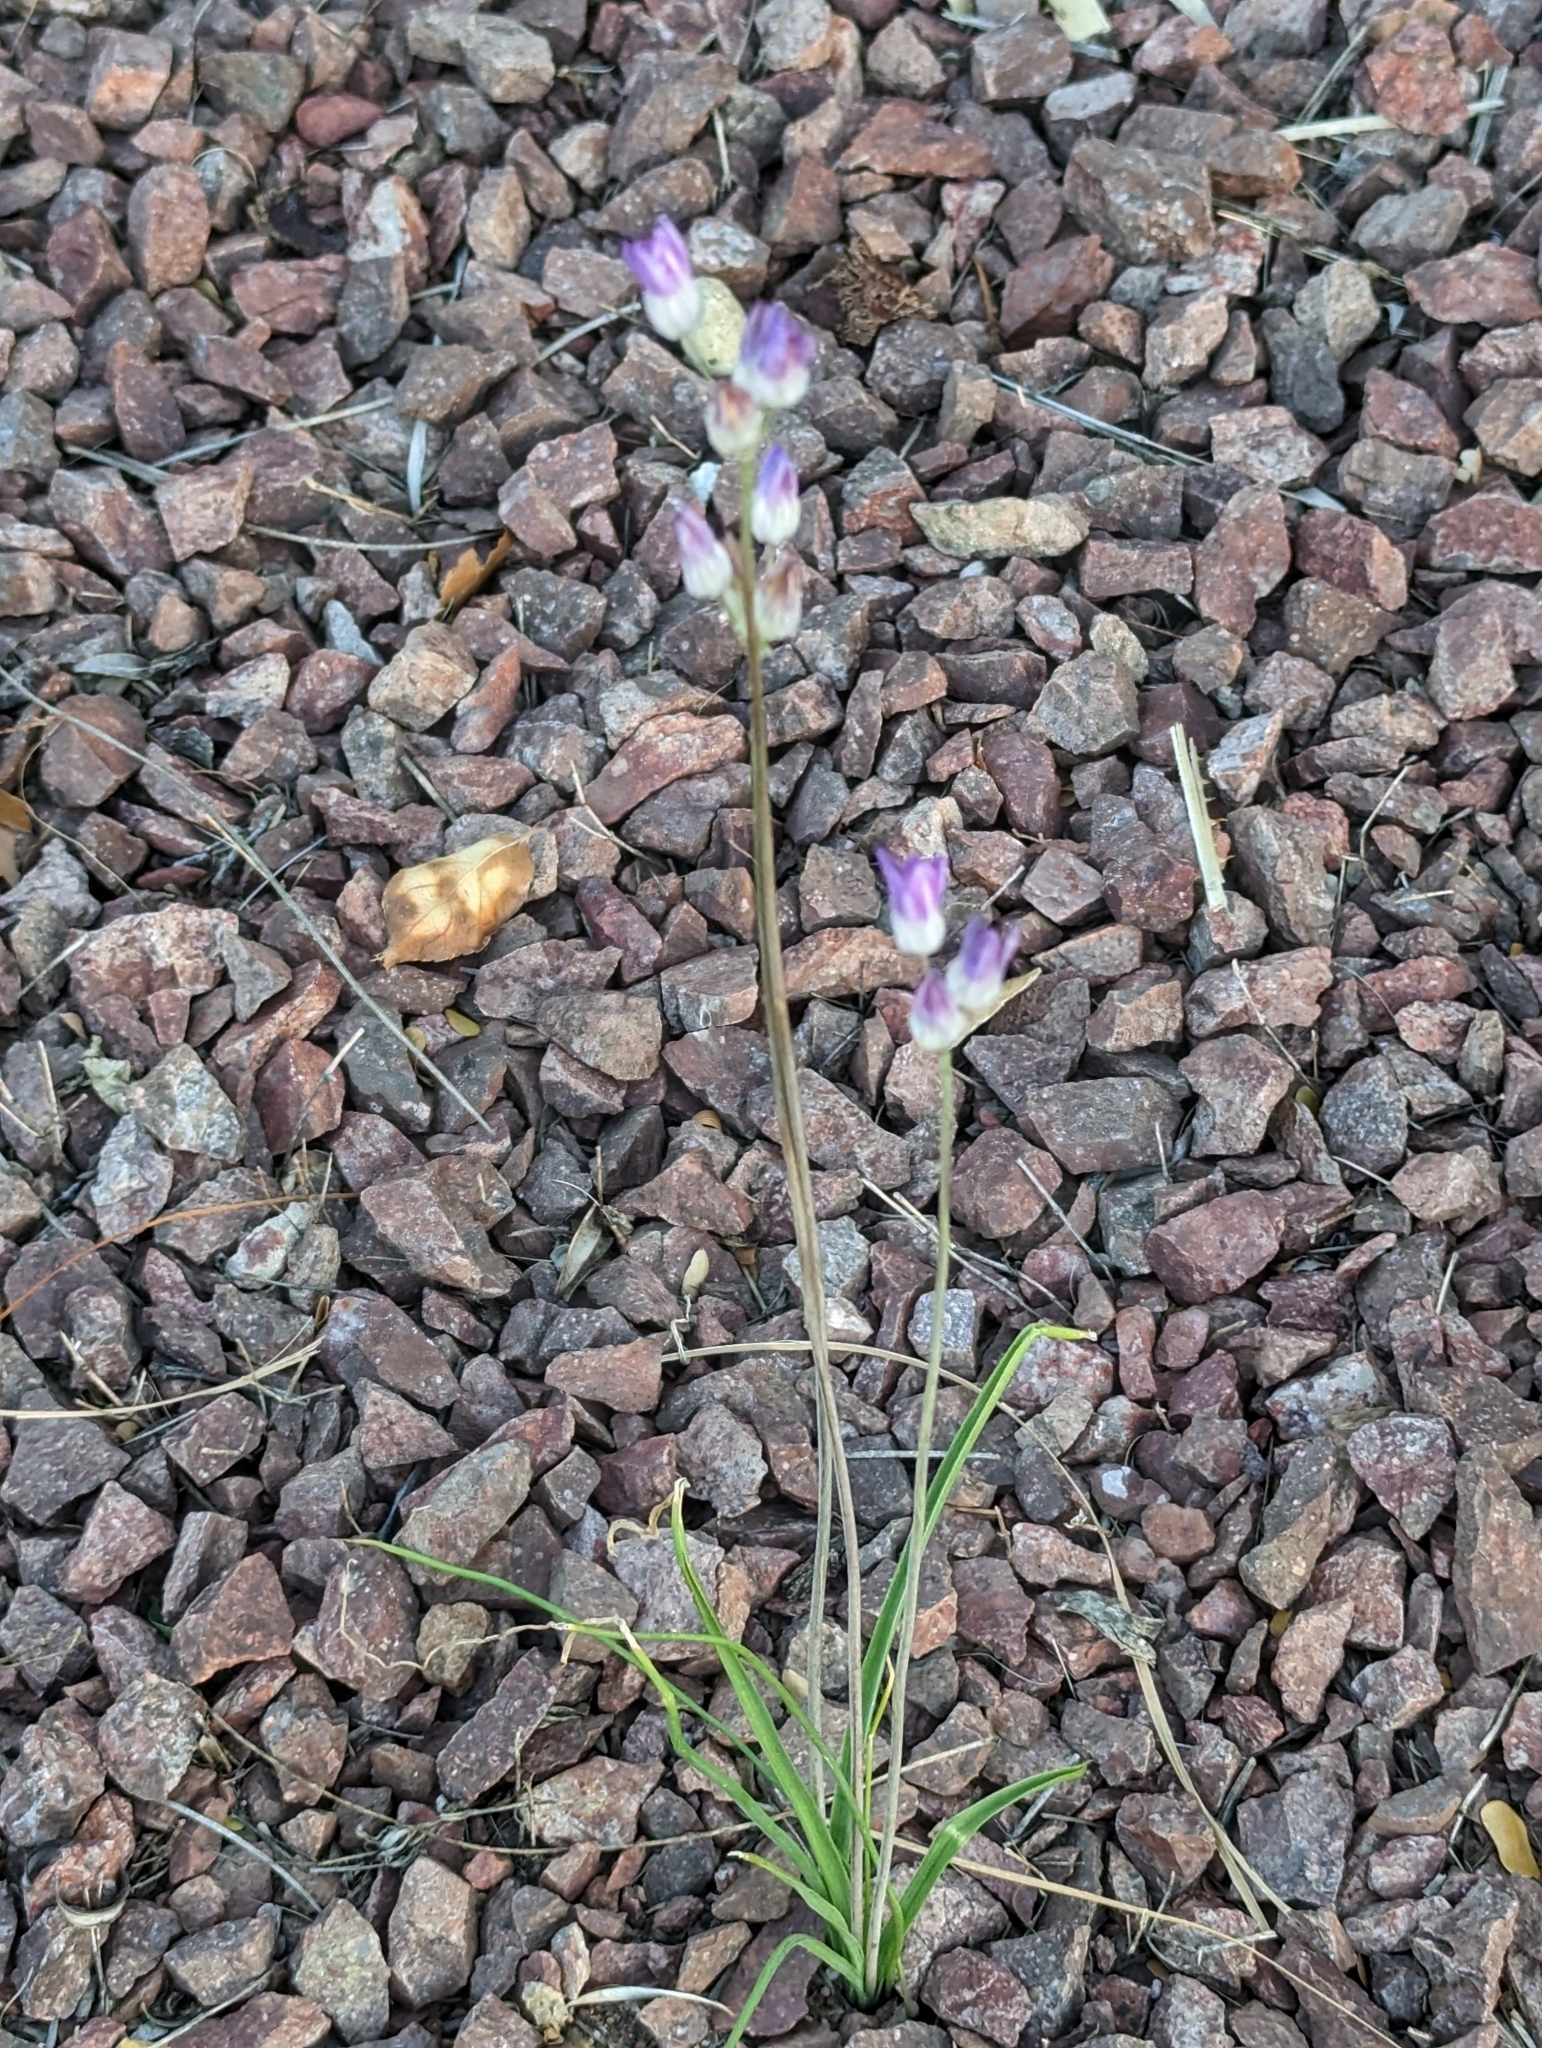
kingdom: Plantae
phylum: Tracheophyta
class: Liliopsida
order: Asparagales
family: Asparagaceae
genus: Dipterostemon
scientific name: Dipterostemon capitatus
